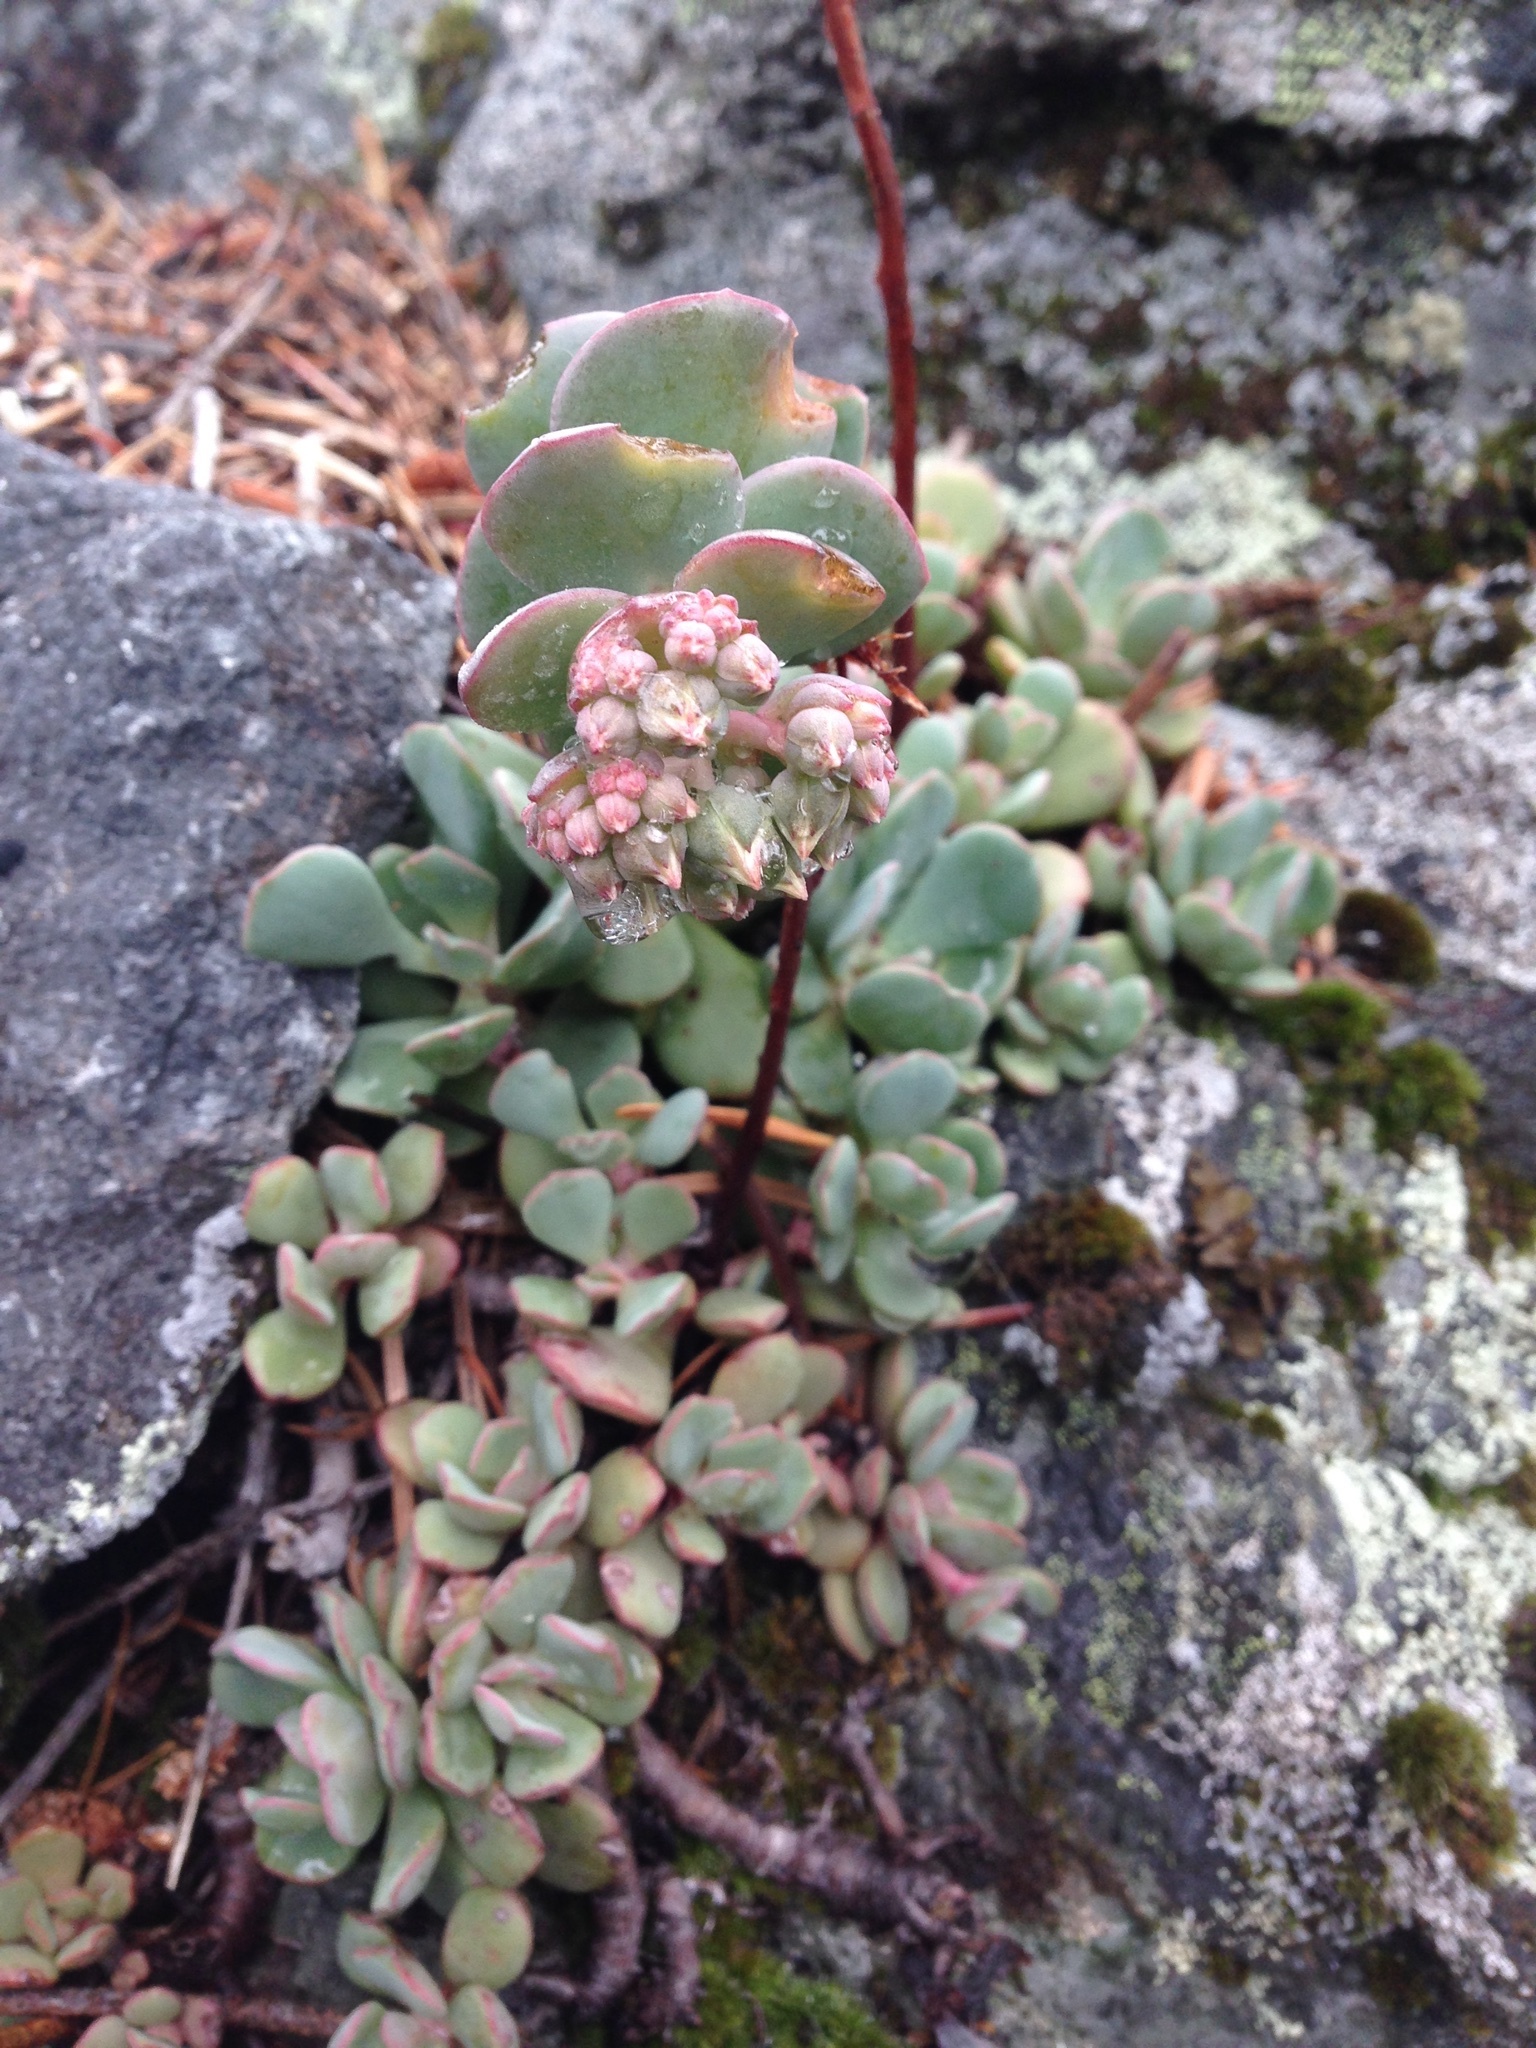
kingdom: Plantae
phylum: Tracheophyta
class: Magnoliopsida
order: Saxifragales
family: Crassulaceae
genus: Sedum
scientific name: Sedum
